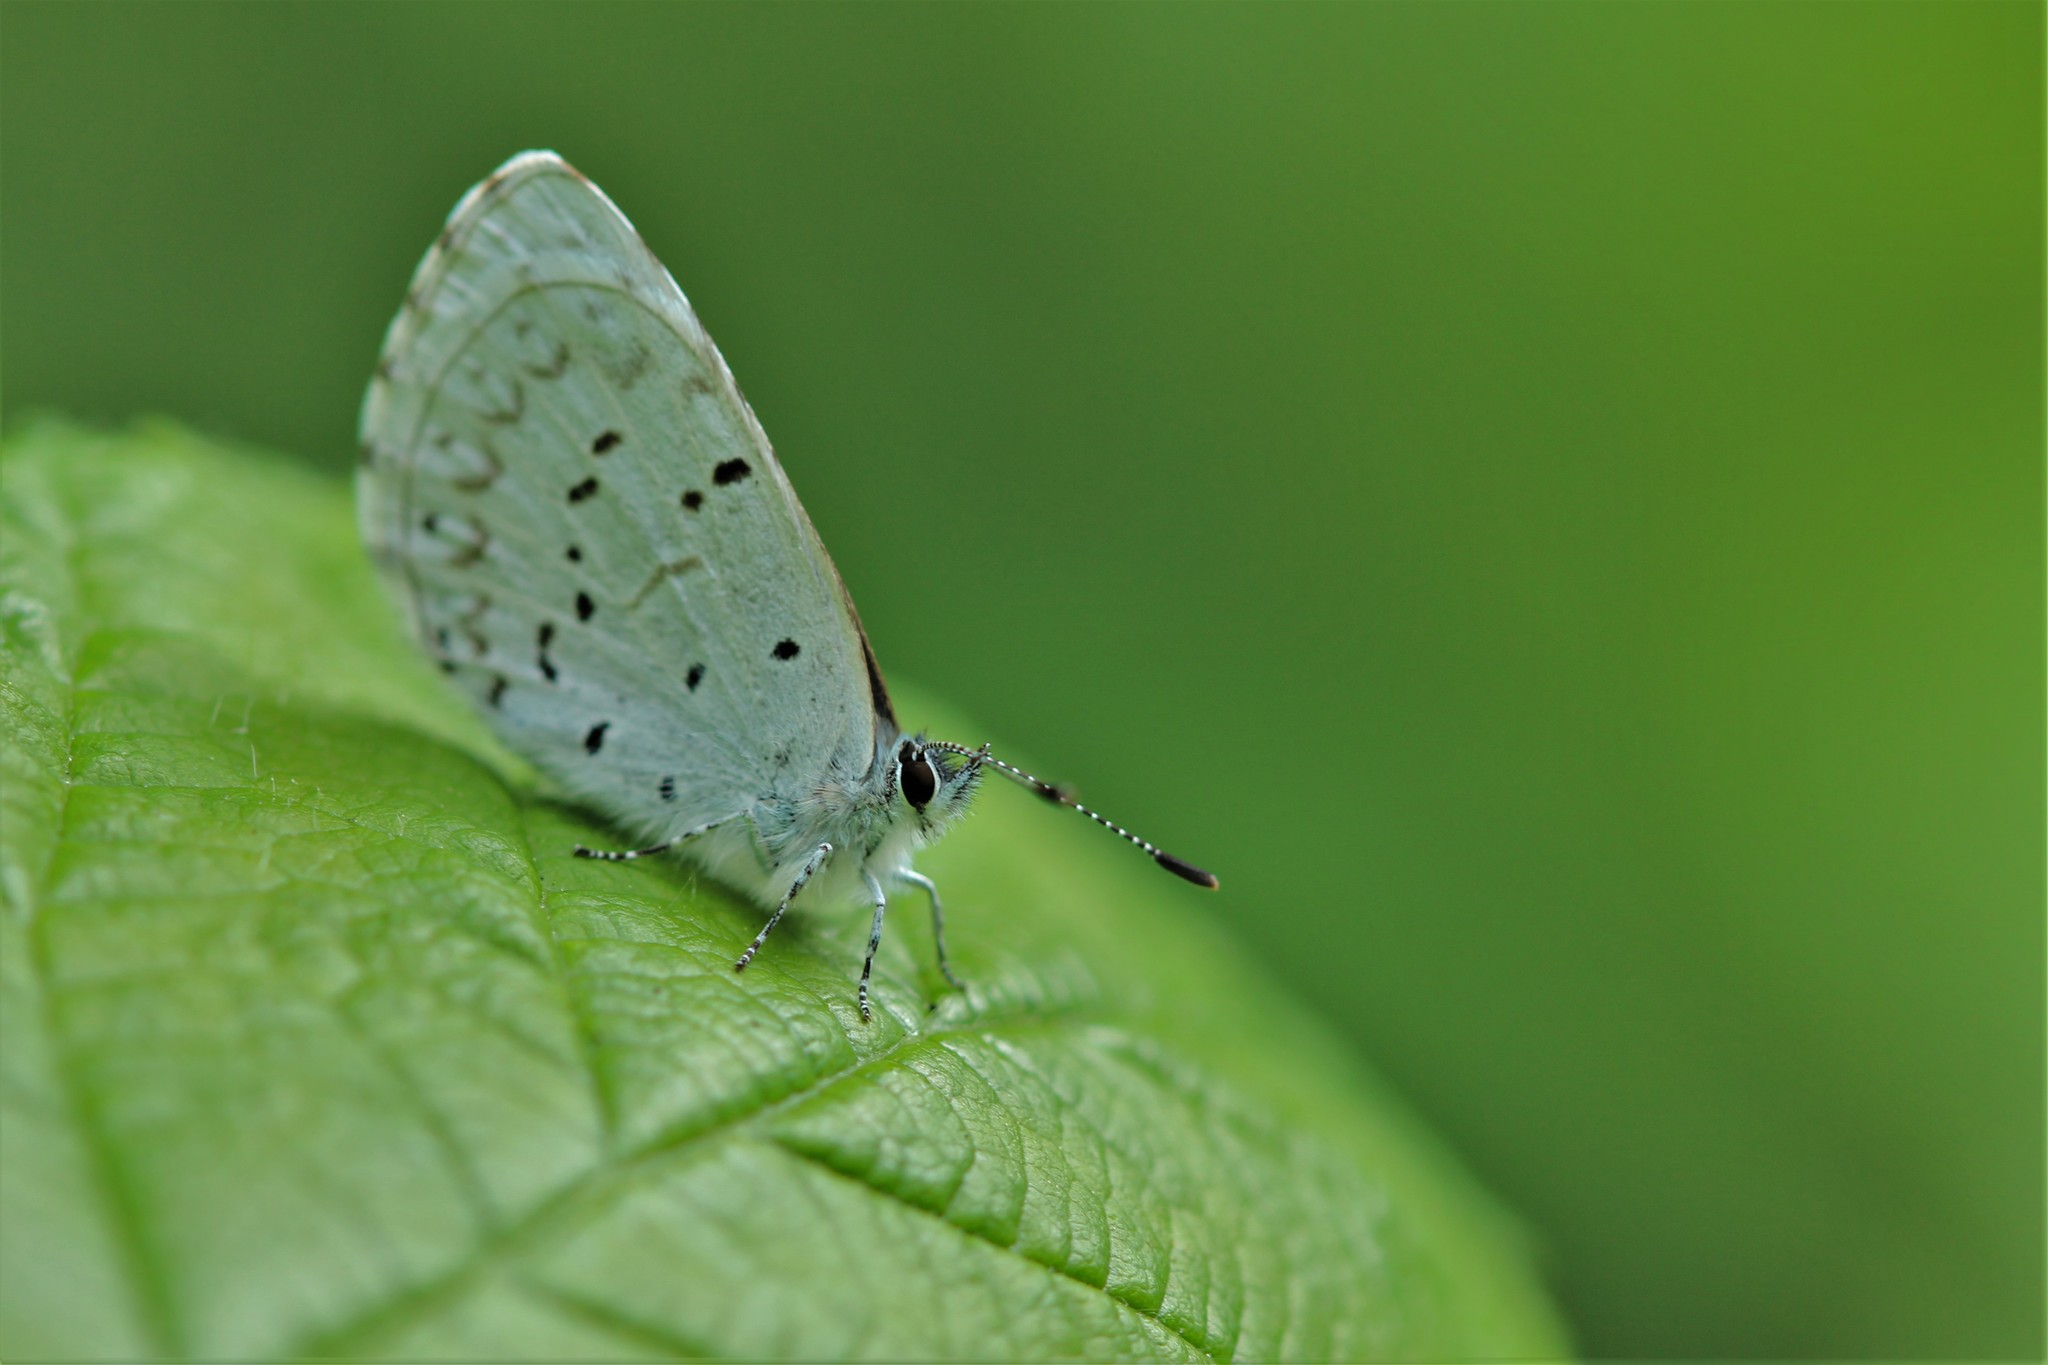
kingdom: Animalia
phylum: Arthropoda
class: Insecta
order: Lepidoptera
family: Lycaenidae
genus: Celastrina
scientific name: Celastrina ladon
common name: Spring azure
